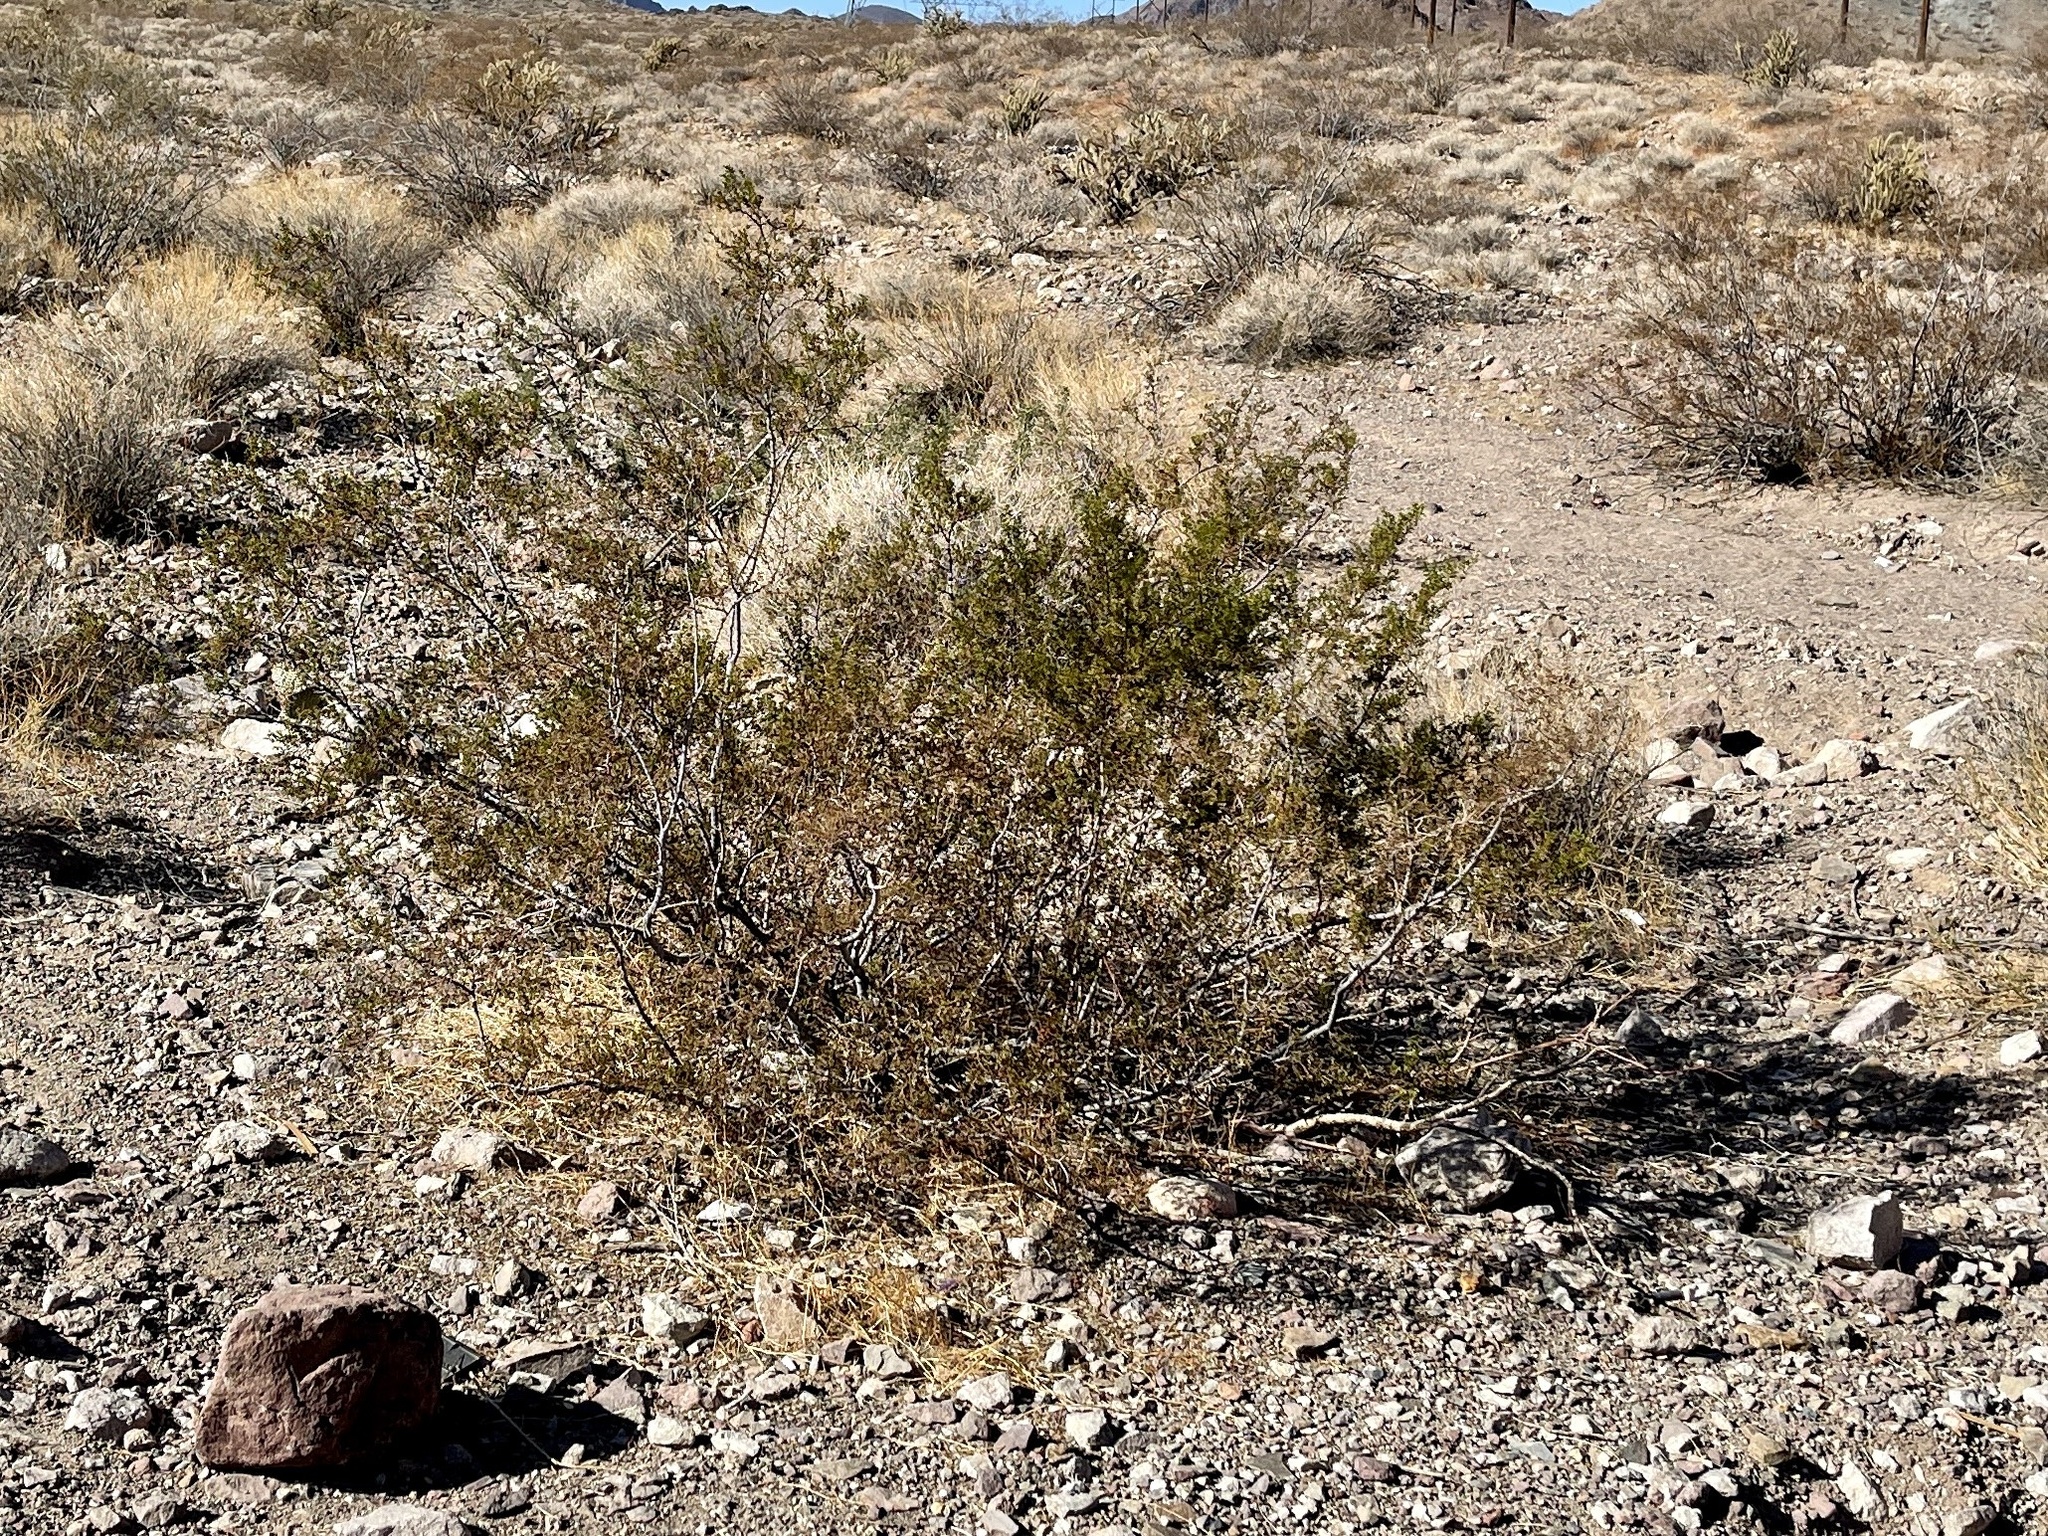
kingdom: Plantae
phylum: Tracheophyta
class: Magnoliopsida
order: Zygophyllales
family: Zygophyllaceae
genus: Larrea
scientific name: Larrea tridentata
